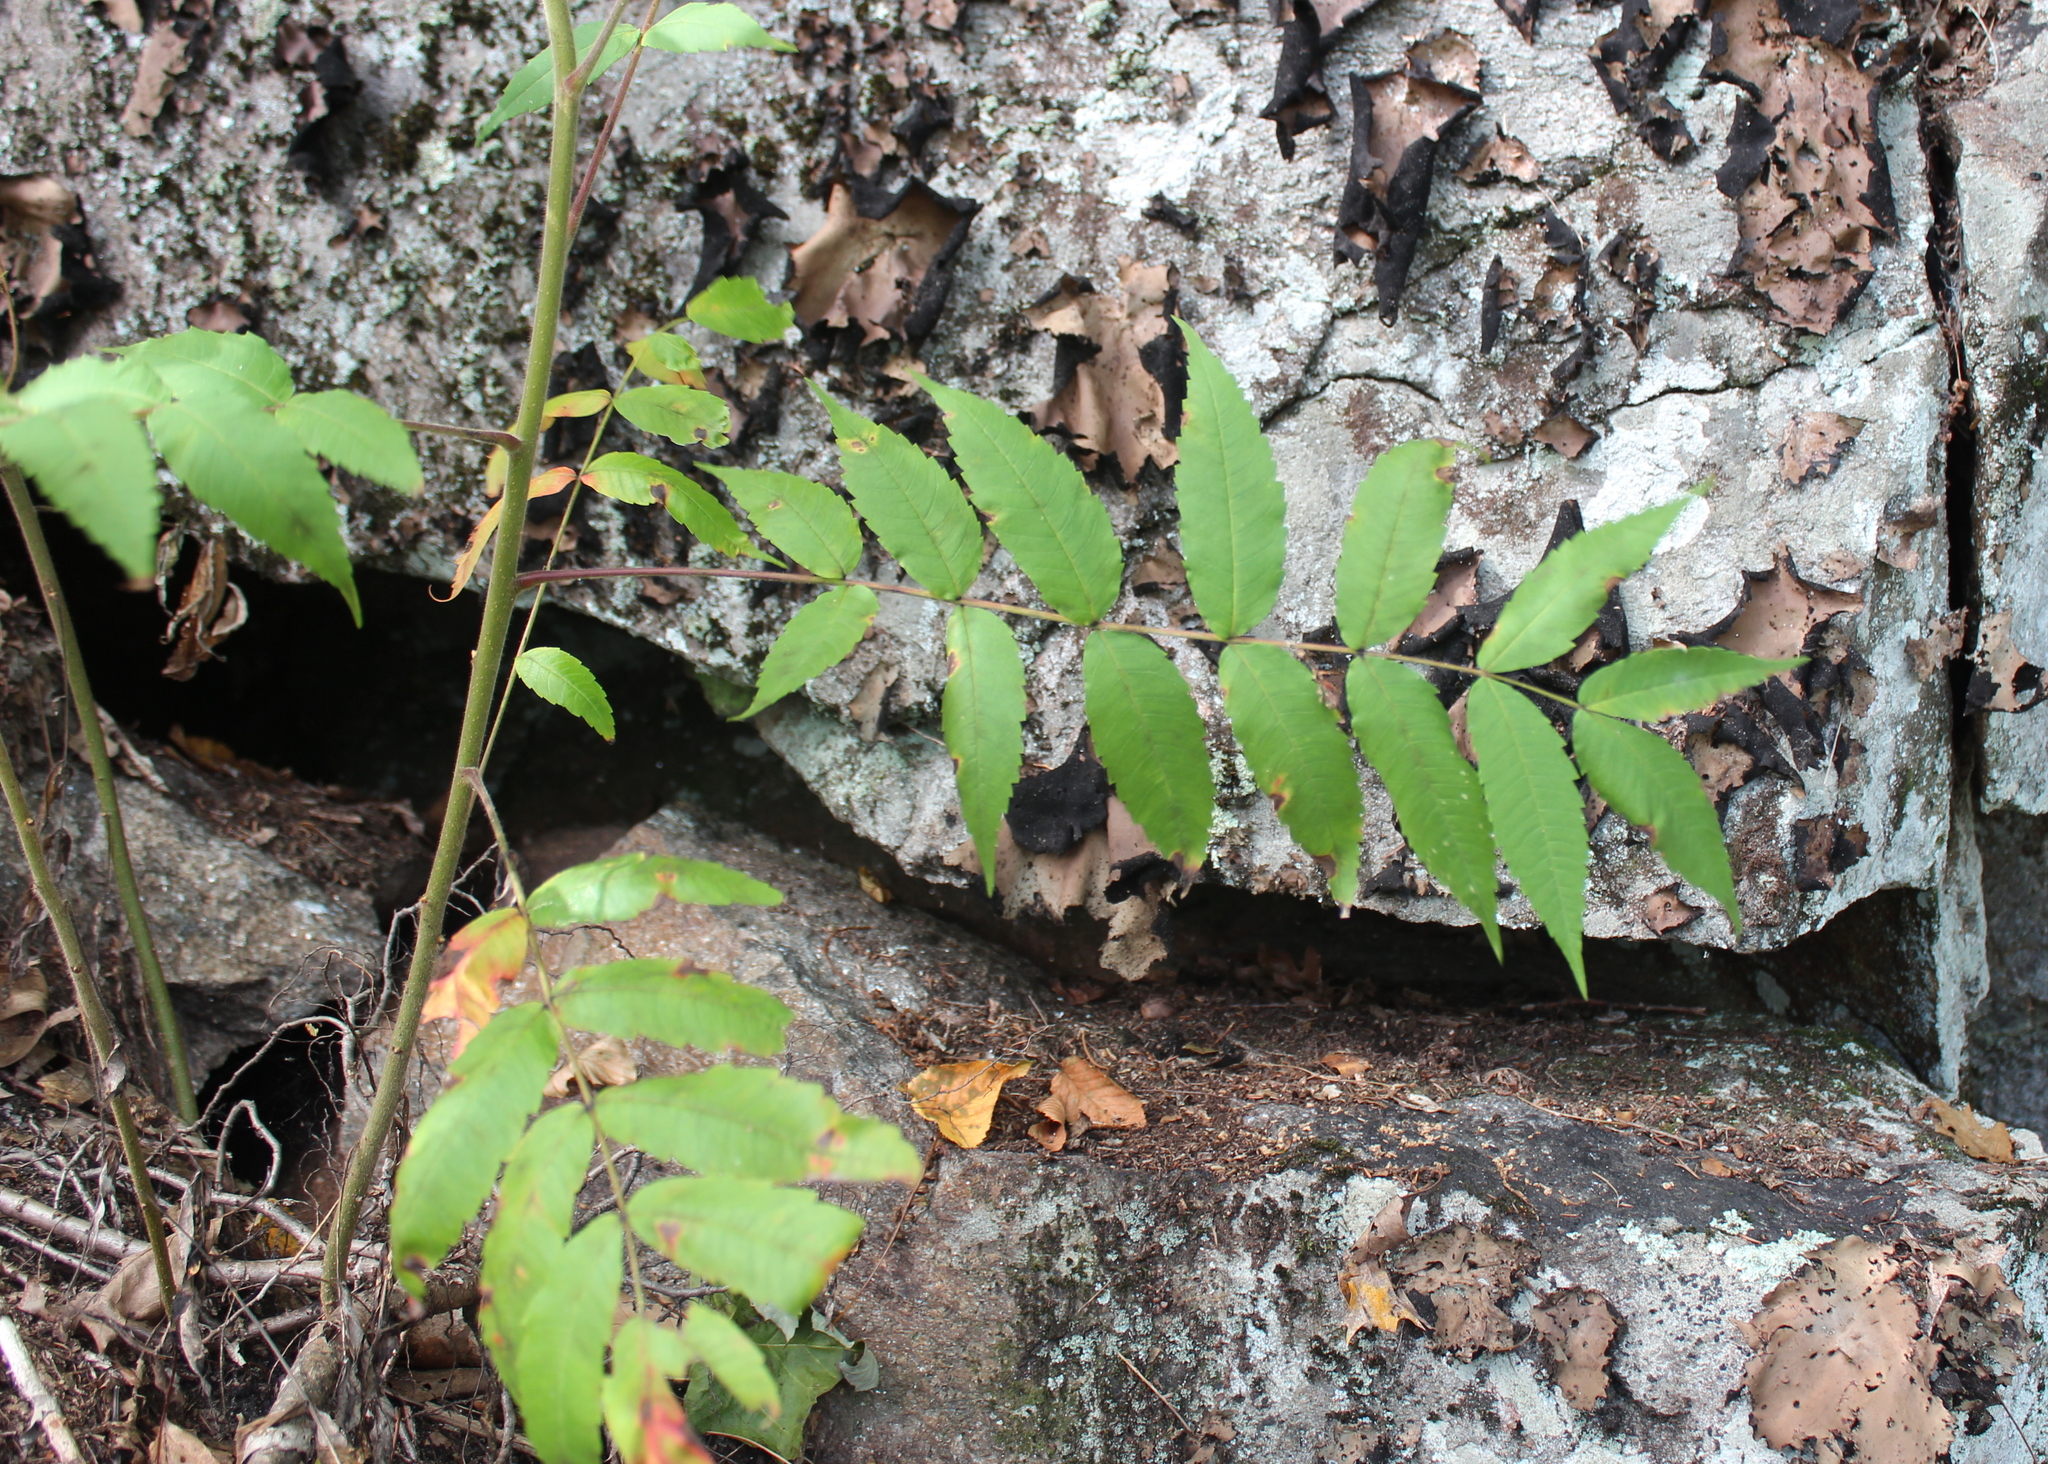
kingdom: Plantae
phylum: Tracheophyta
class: Magnoliopsida
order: Sapindales
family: Anacardiaceae
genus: Rhus
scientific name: Rhus typhina
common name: Staghorn sumac
